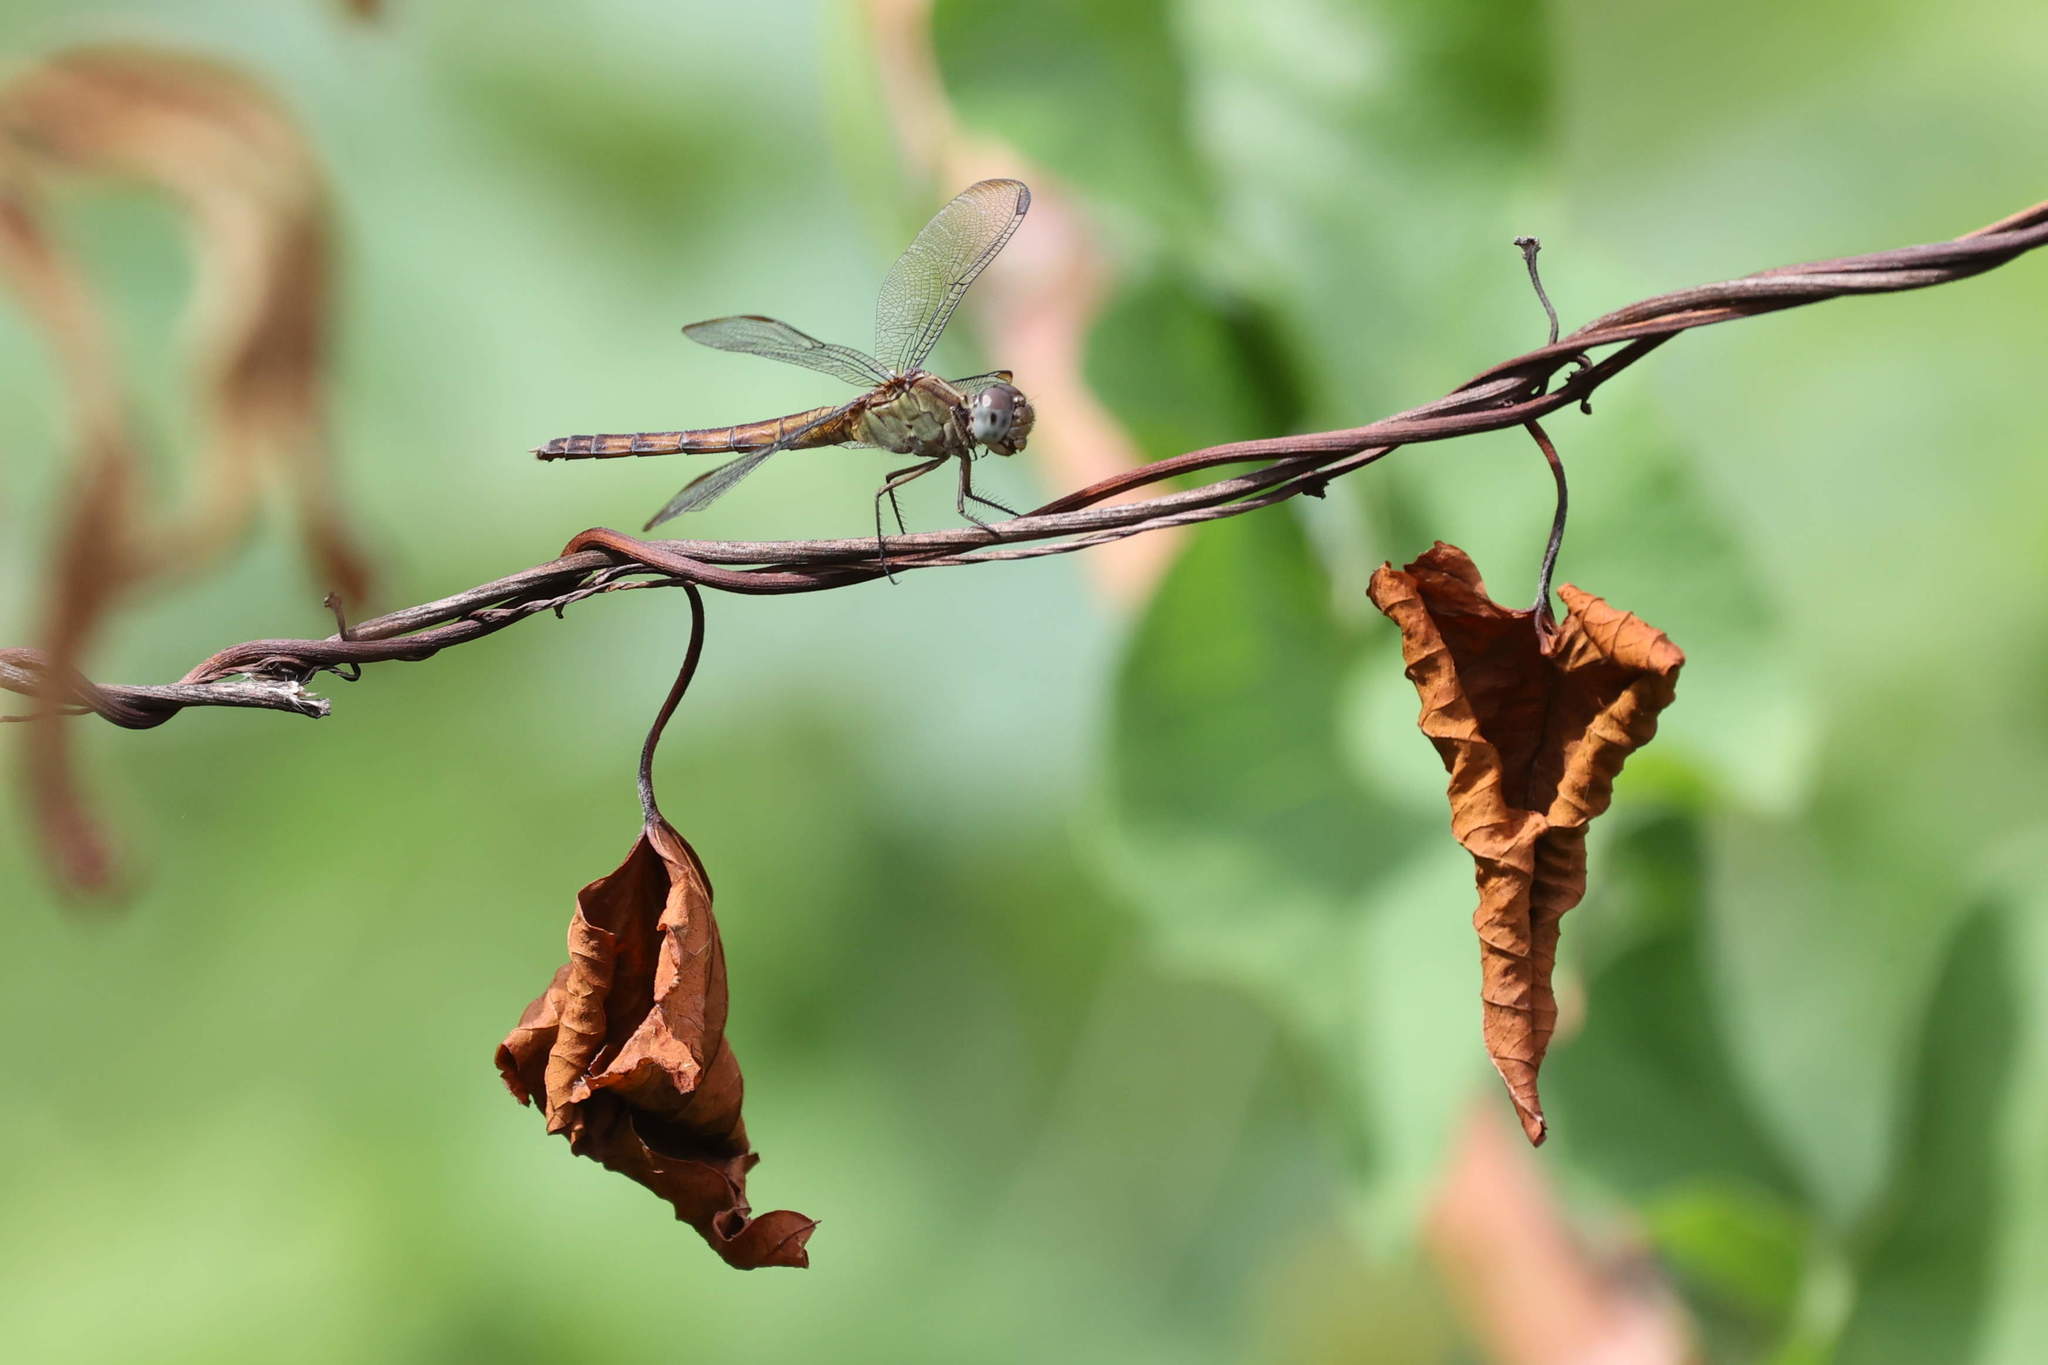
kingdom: Animalia
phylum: Arthropoda
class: Insecta
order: Odonata
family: Libellulidae
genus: Erythrodiplax
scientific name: Erythrodiplax umbrata
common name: Band-winged dragonlet
